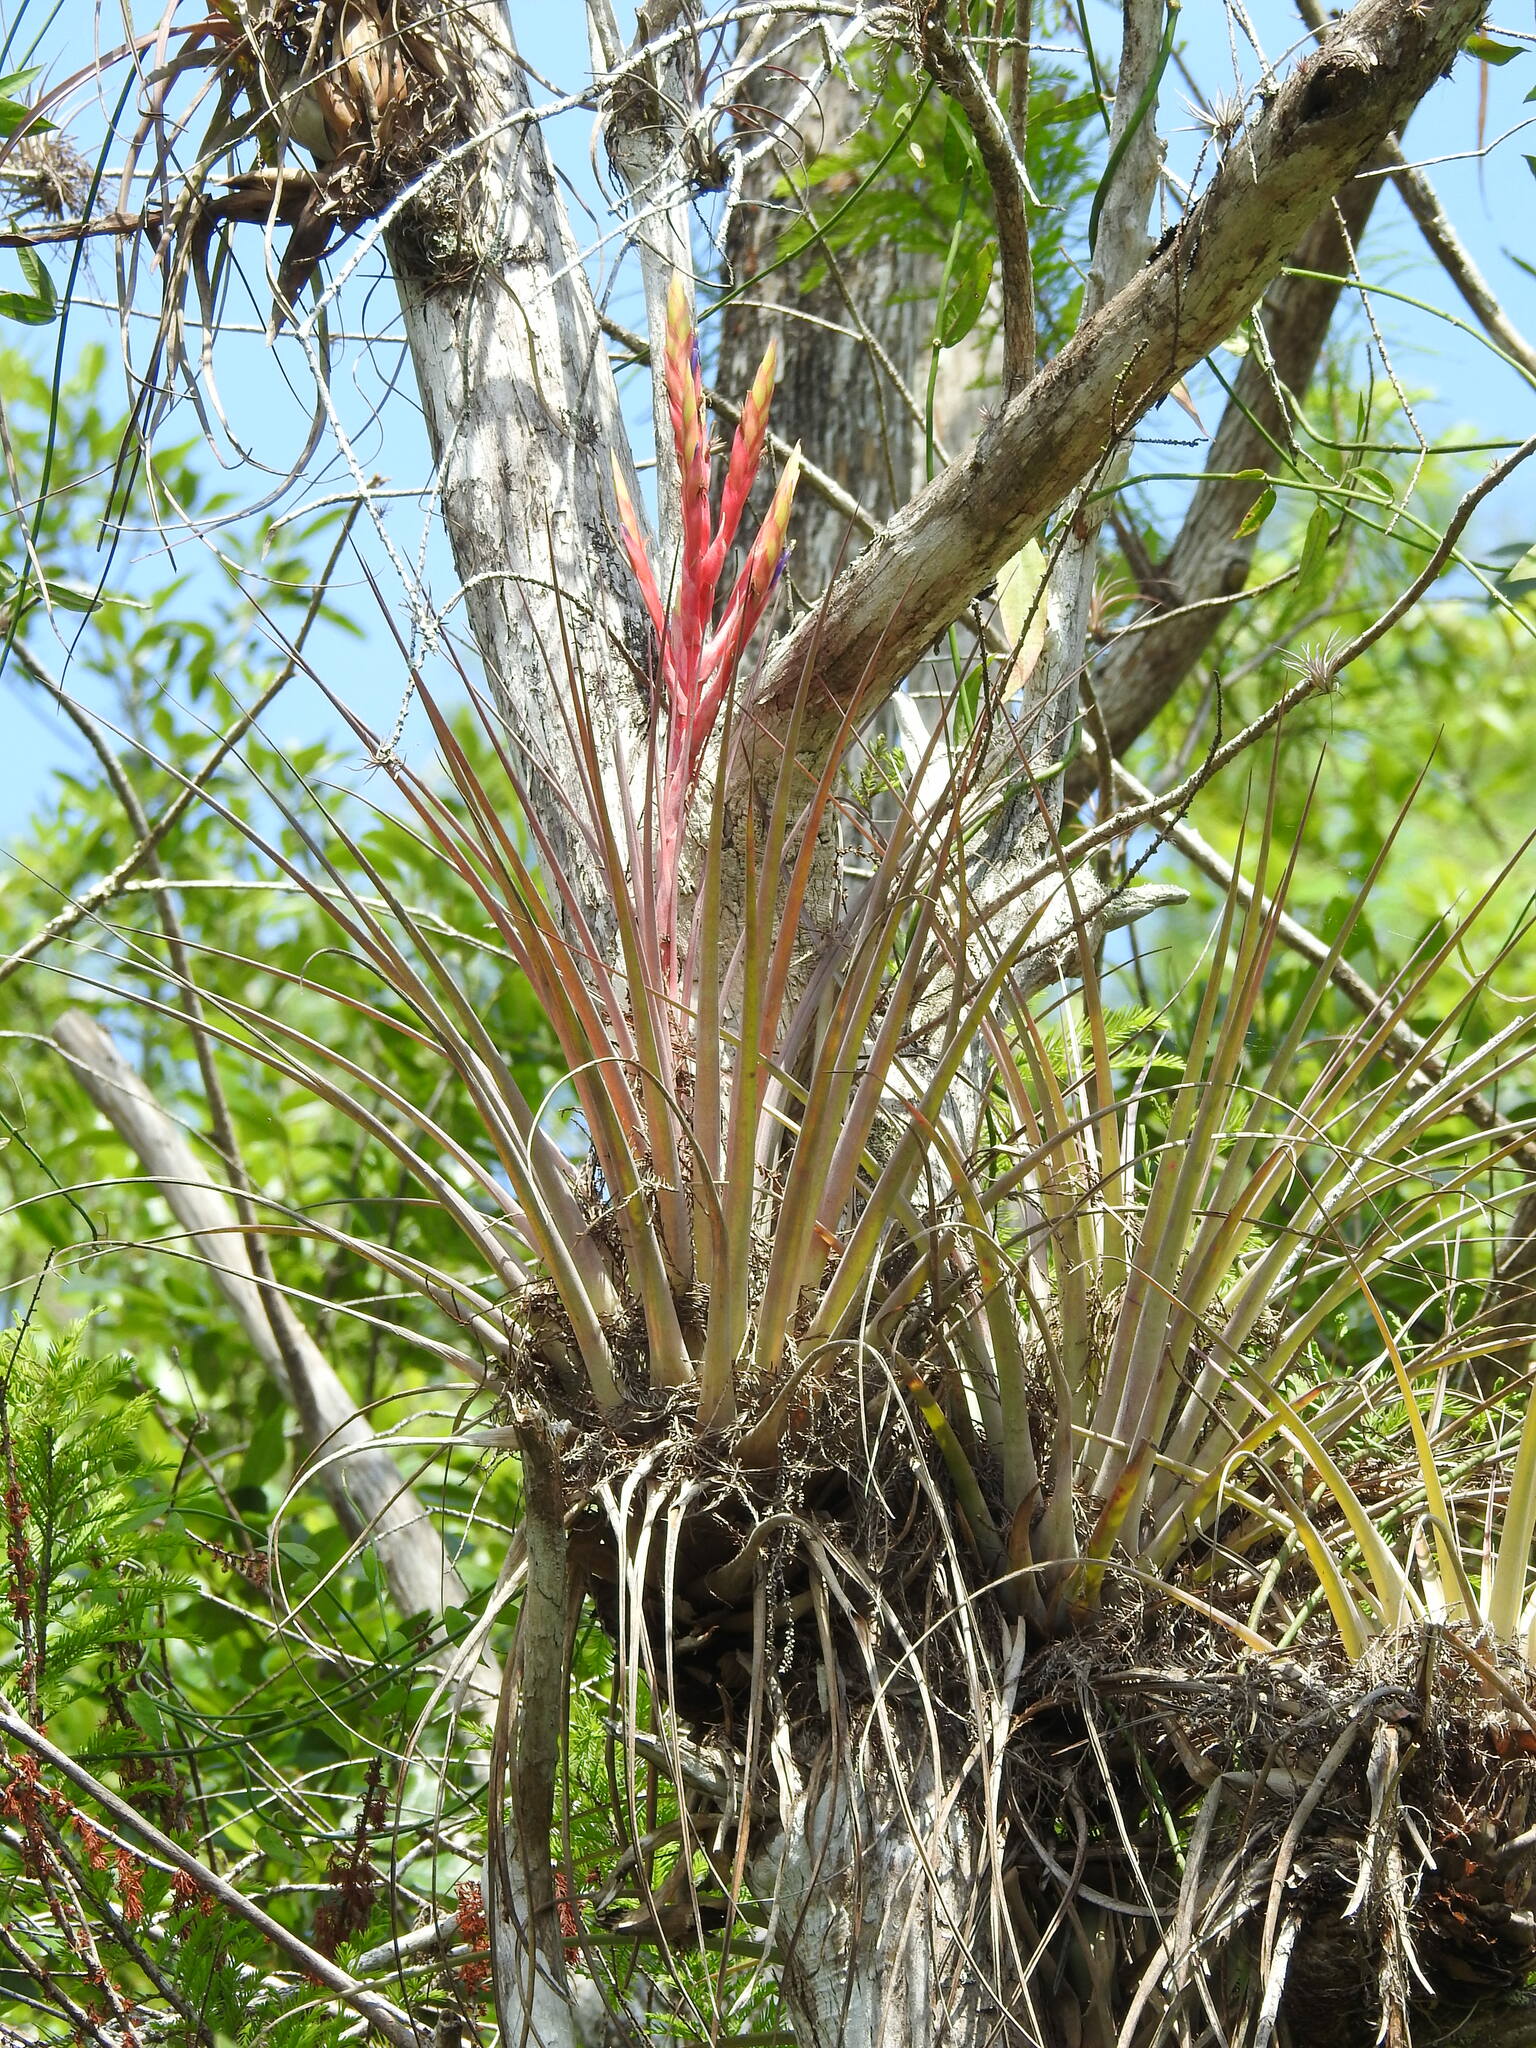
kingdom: Plantae
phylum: Tracheophyta
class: Liliopsida
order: Poales
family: Bromeliaceae
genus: Tillandsia
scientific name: Tillandsia fasciculata
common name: Giant airplant
